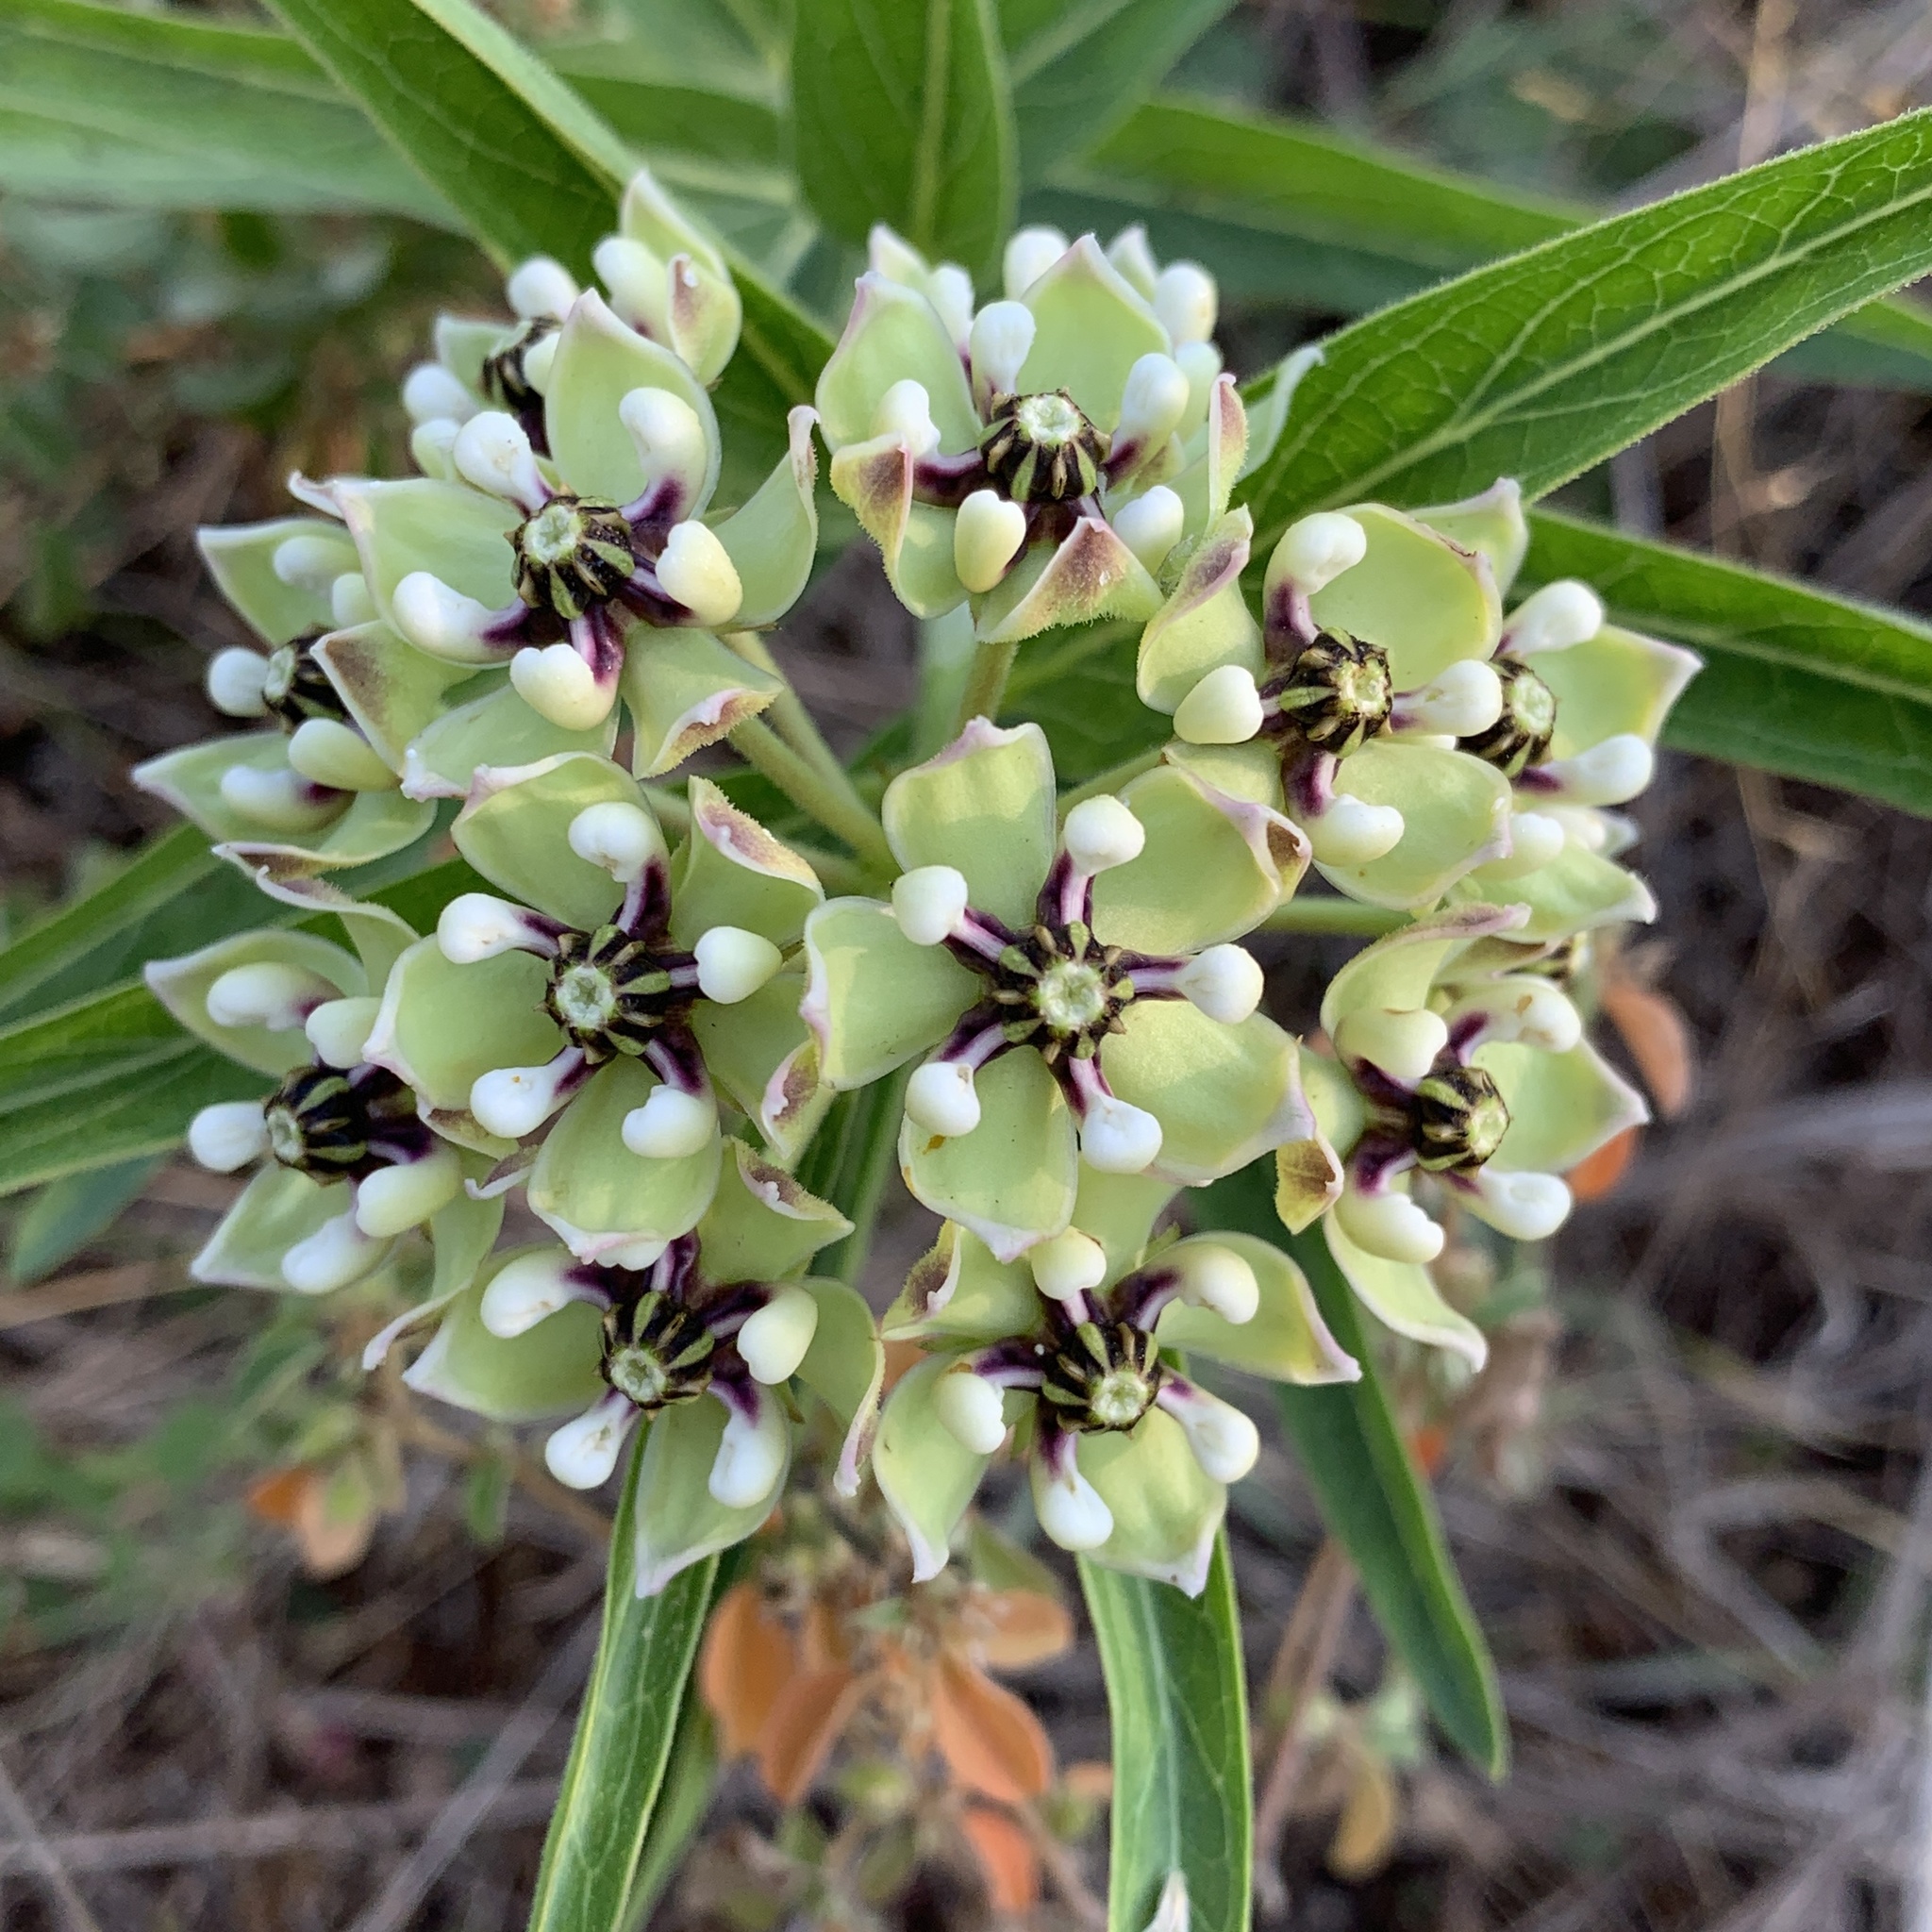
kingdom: Plantae
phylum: Tracheophyta
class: Magnoliopsida
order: Gentianales
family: Apocynaceae
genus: Asclepias
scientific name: Asclepias asperula
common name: Antelope horns
